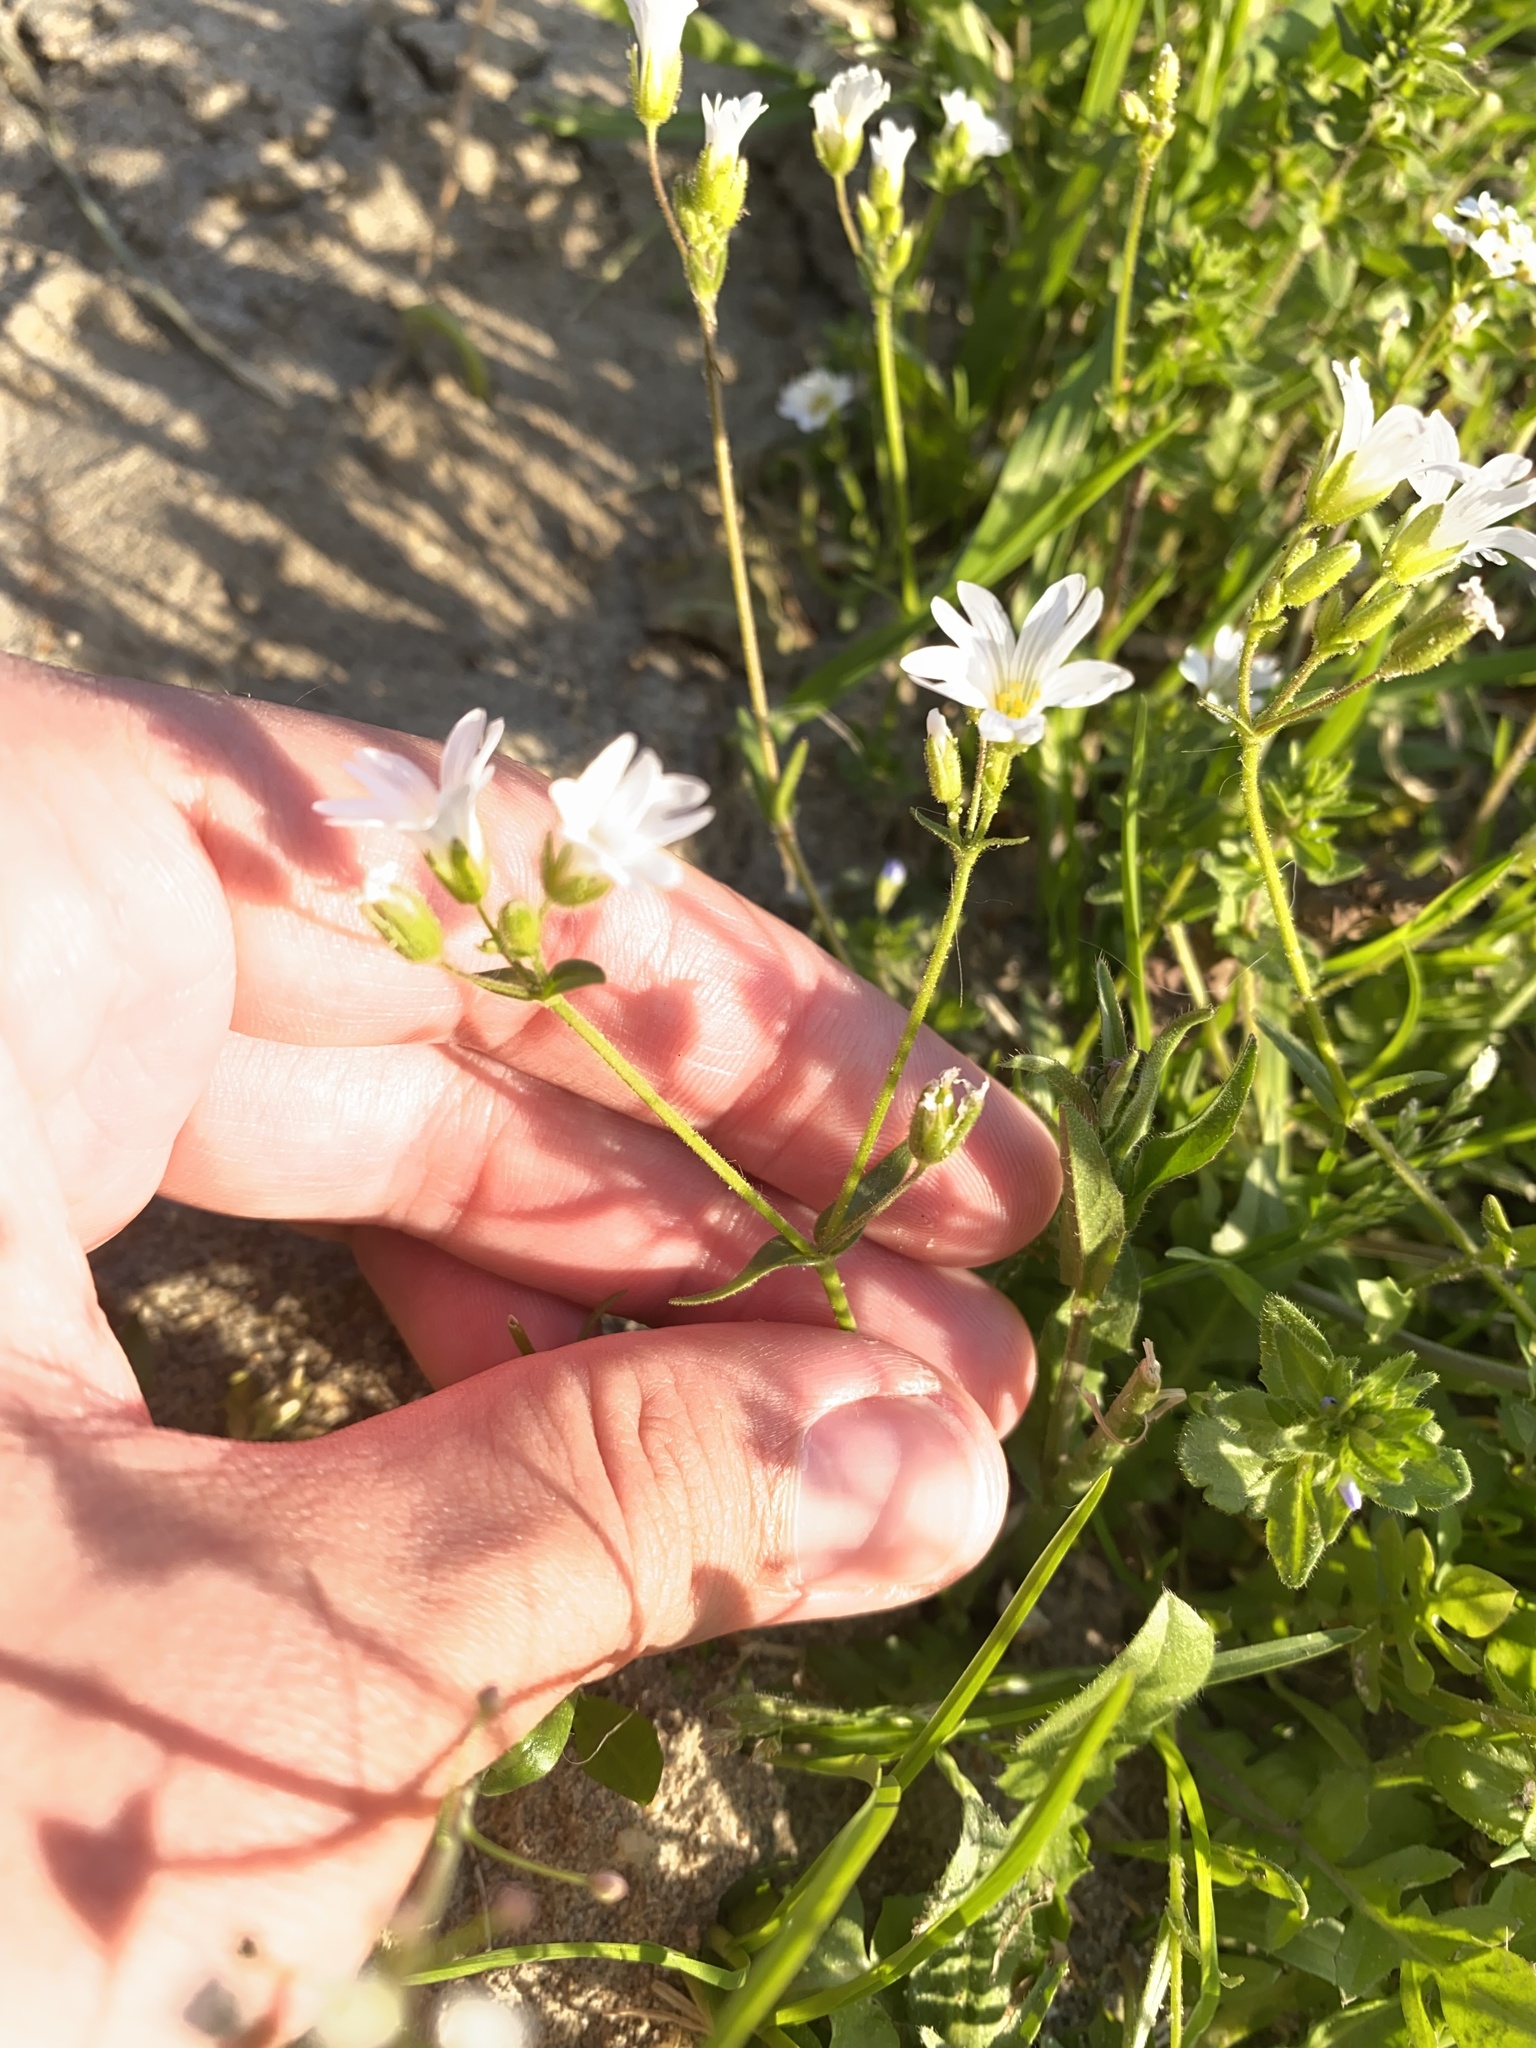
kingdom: Plantae
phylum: Tracheophyta
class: Magnoliopsida
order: Caryophyllales
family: Caryophyllaceae
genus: Dichodon
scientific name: Dichodon viscidum
